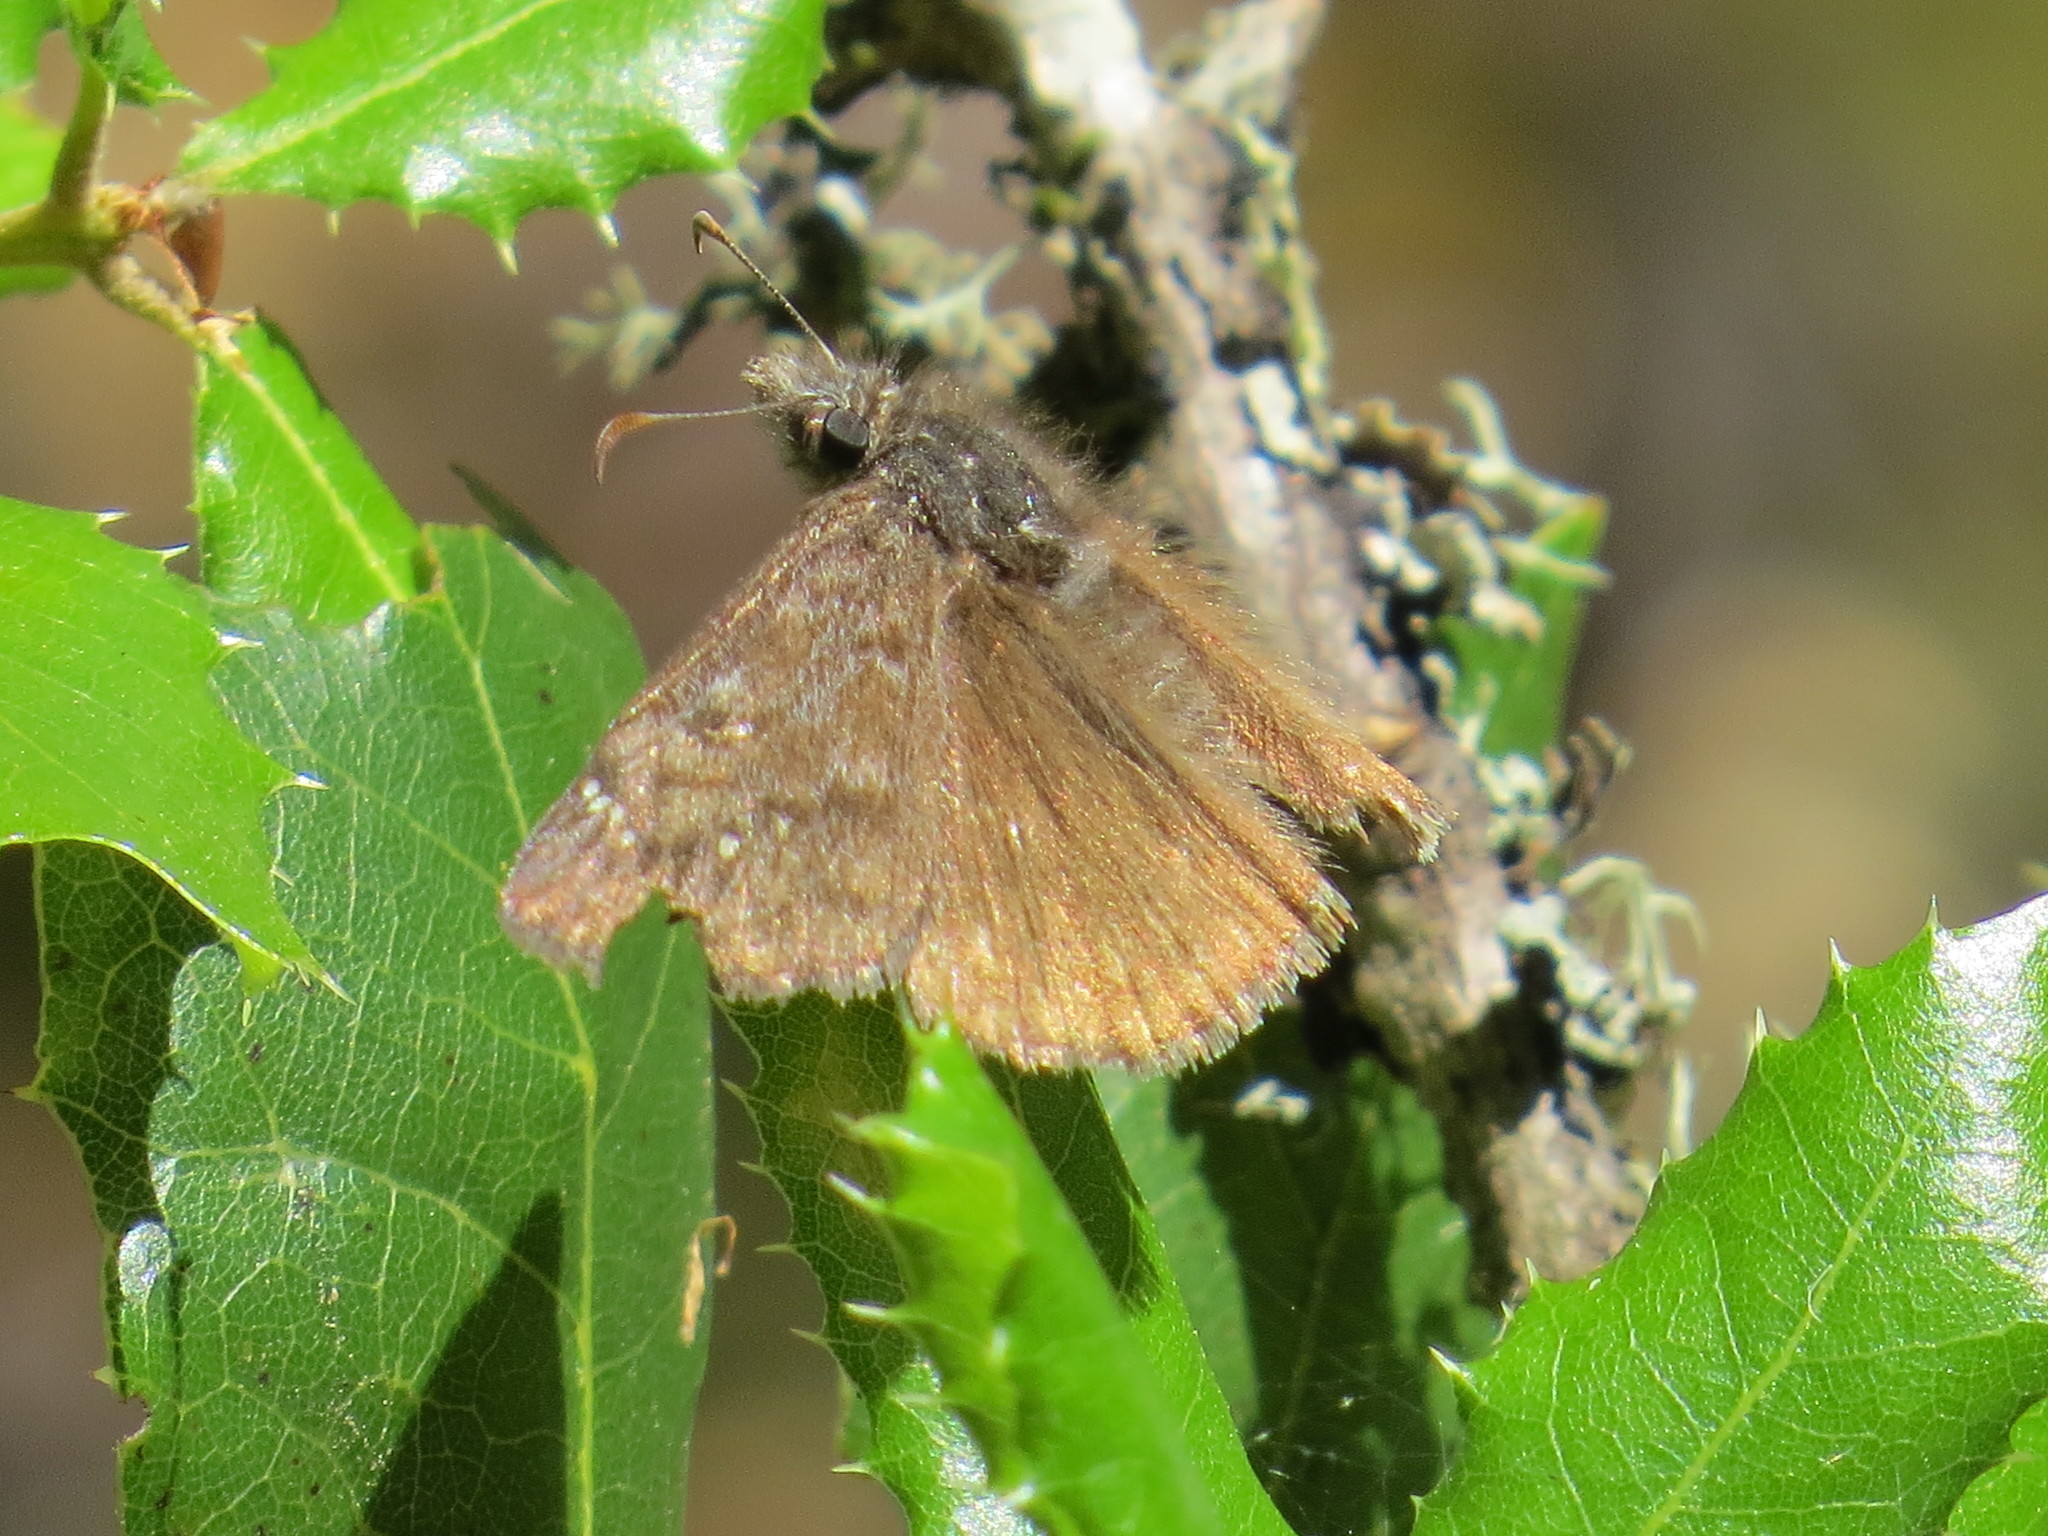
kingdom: Animalia
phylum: Arthropoda
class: Insecta
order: Lepidoptera
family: Hesperiidae
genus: Erynnis
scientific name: Erynnis propertius
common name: Propertius duskywing
